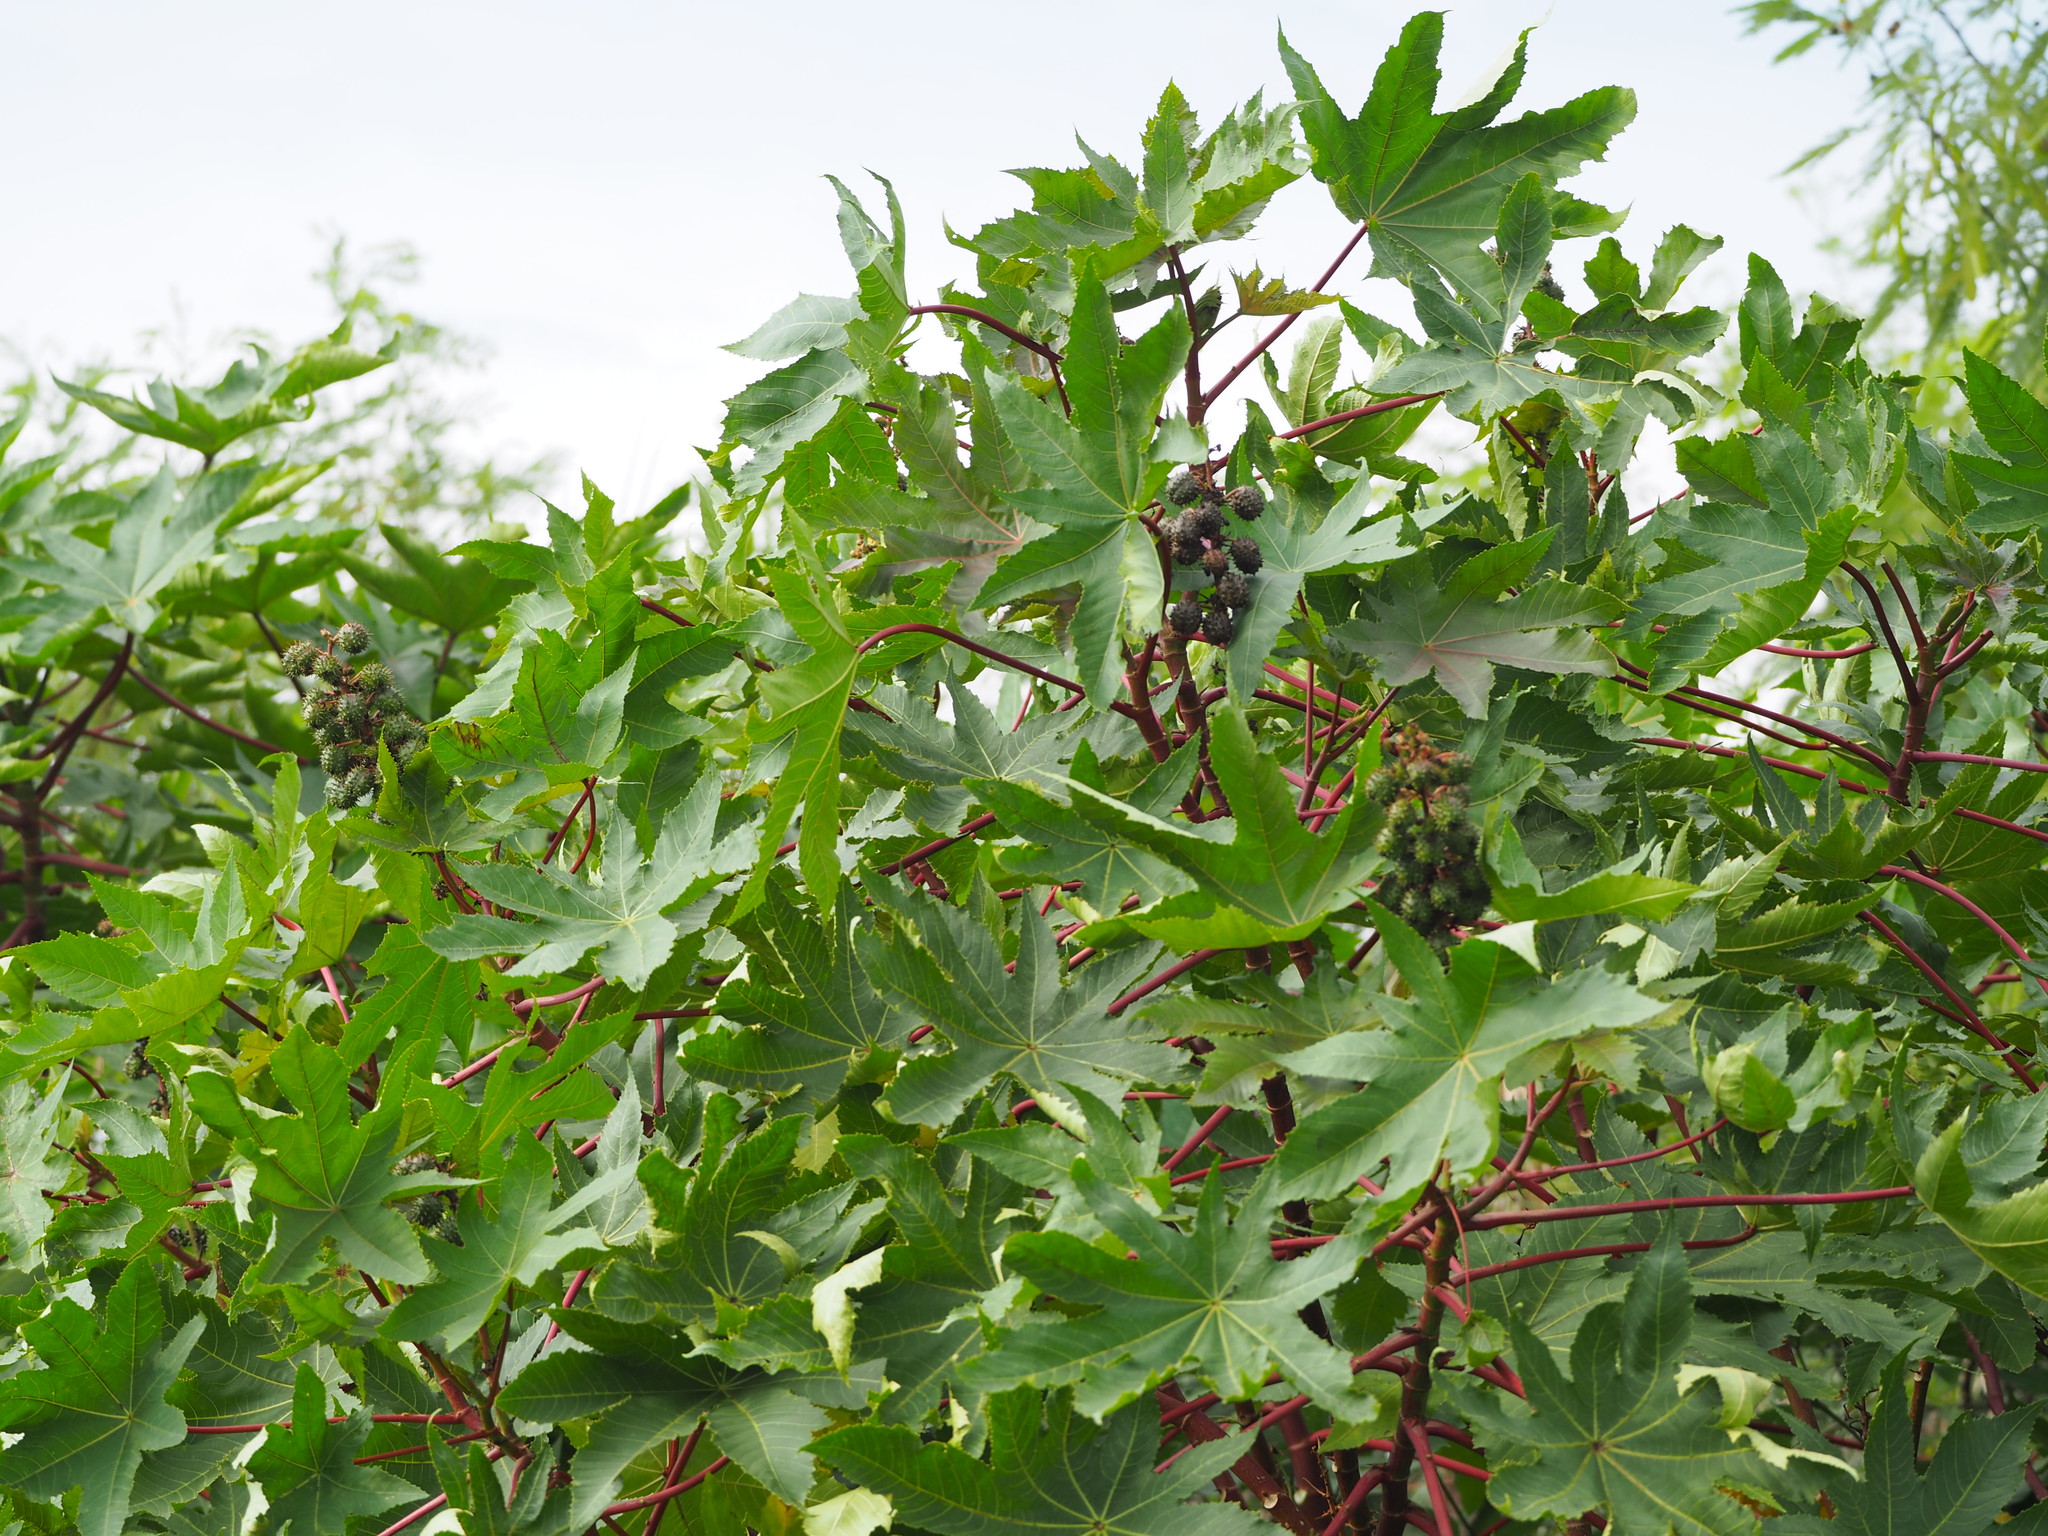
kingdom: Plantae
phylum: Tracheophyta
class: Magnoliopsida
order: Malpighiales
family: Euphorbiaceae
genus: Ricinus
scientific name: Ricinus communis
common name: Castor-oil-plant
